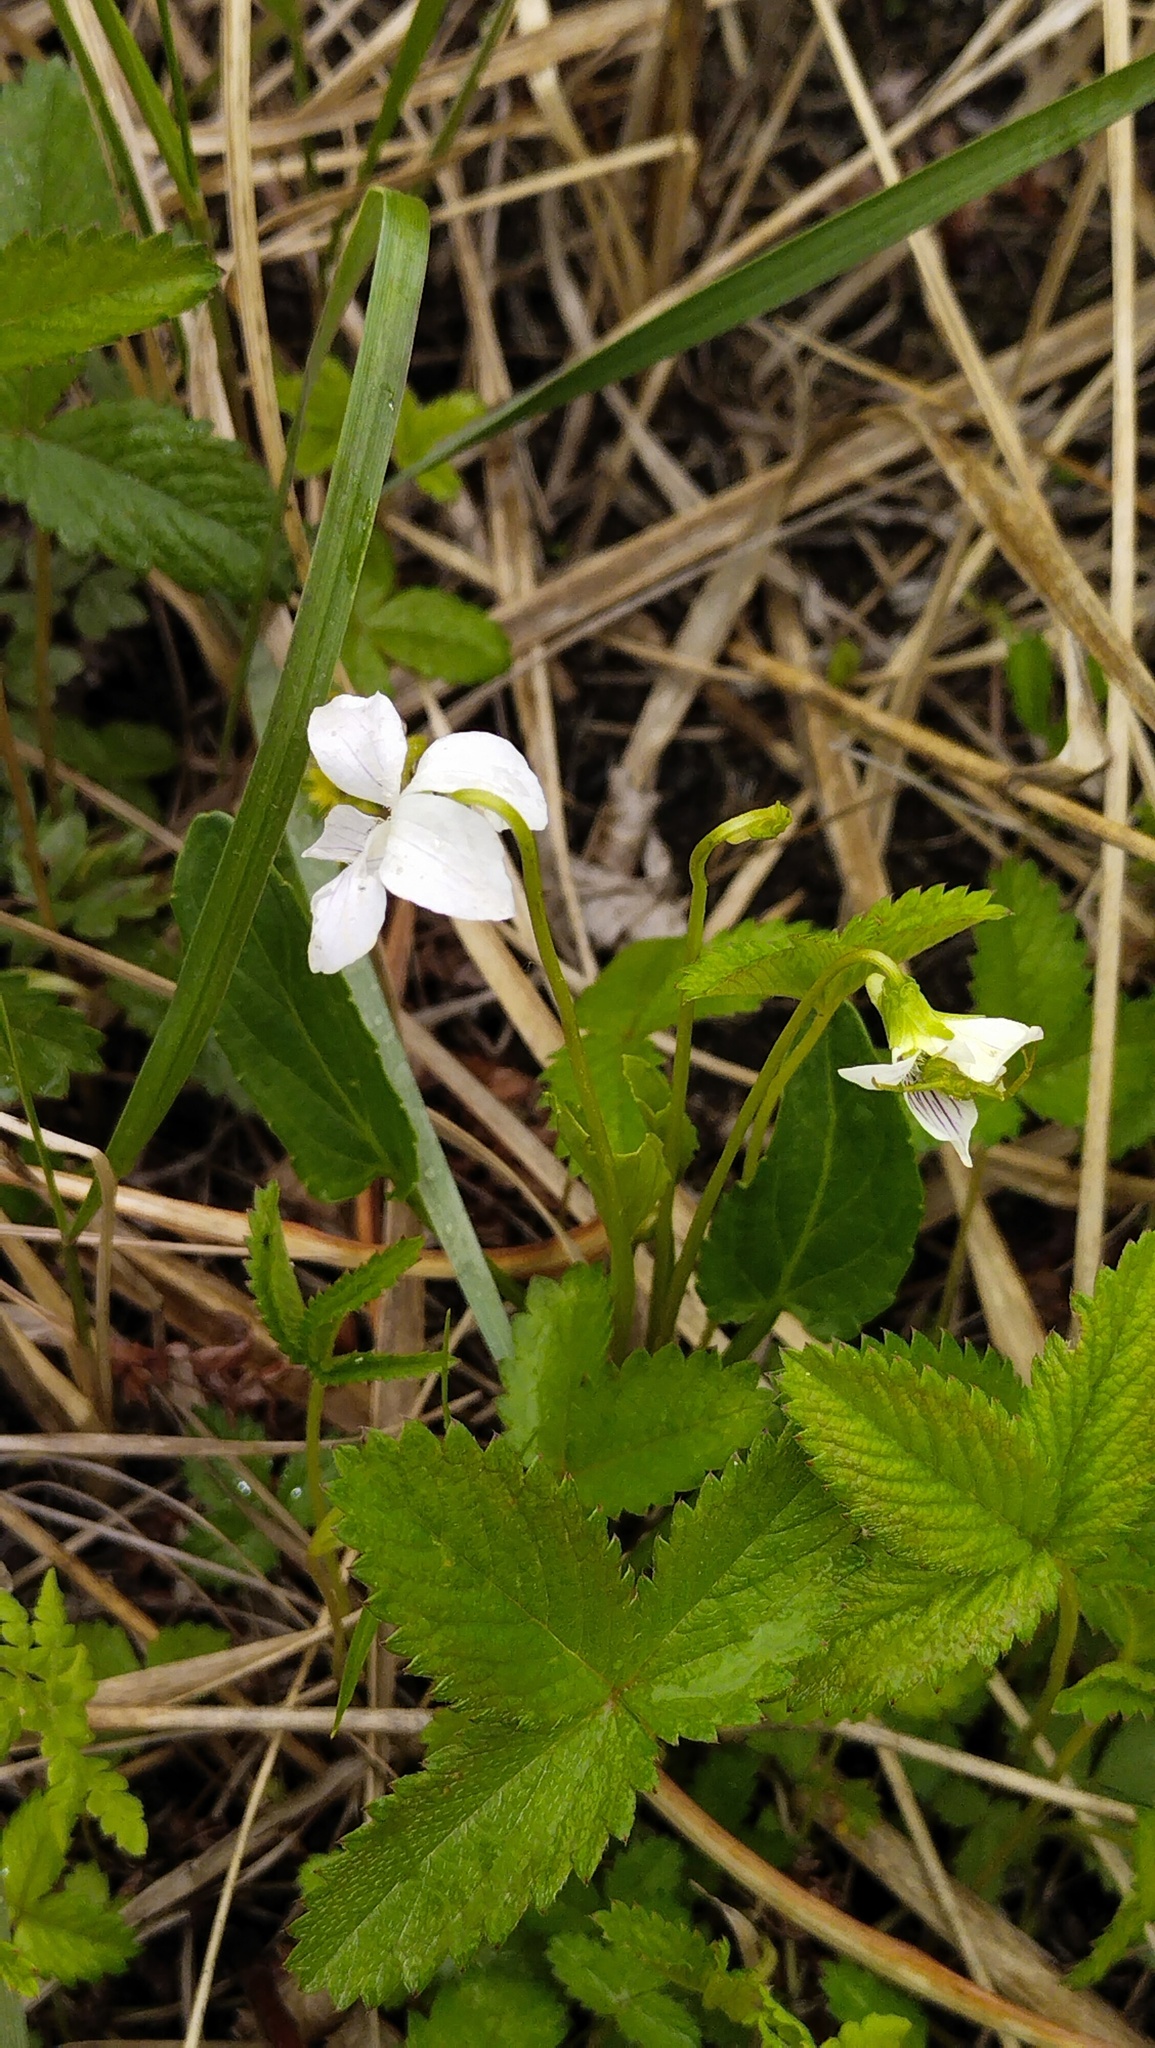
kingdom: Plantae
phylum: Tracheophyta
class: Magnoliopsida
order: Malpighiales
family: Violaceae
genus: Viola
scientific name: Viola patrinii
